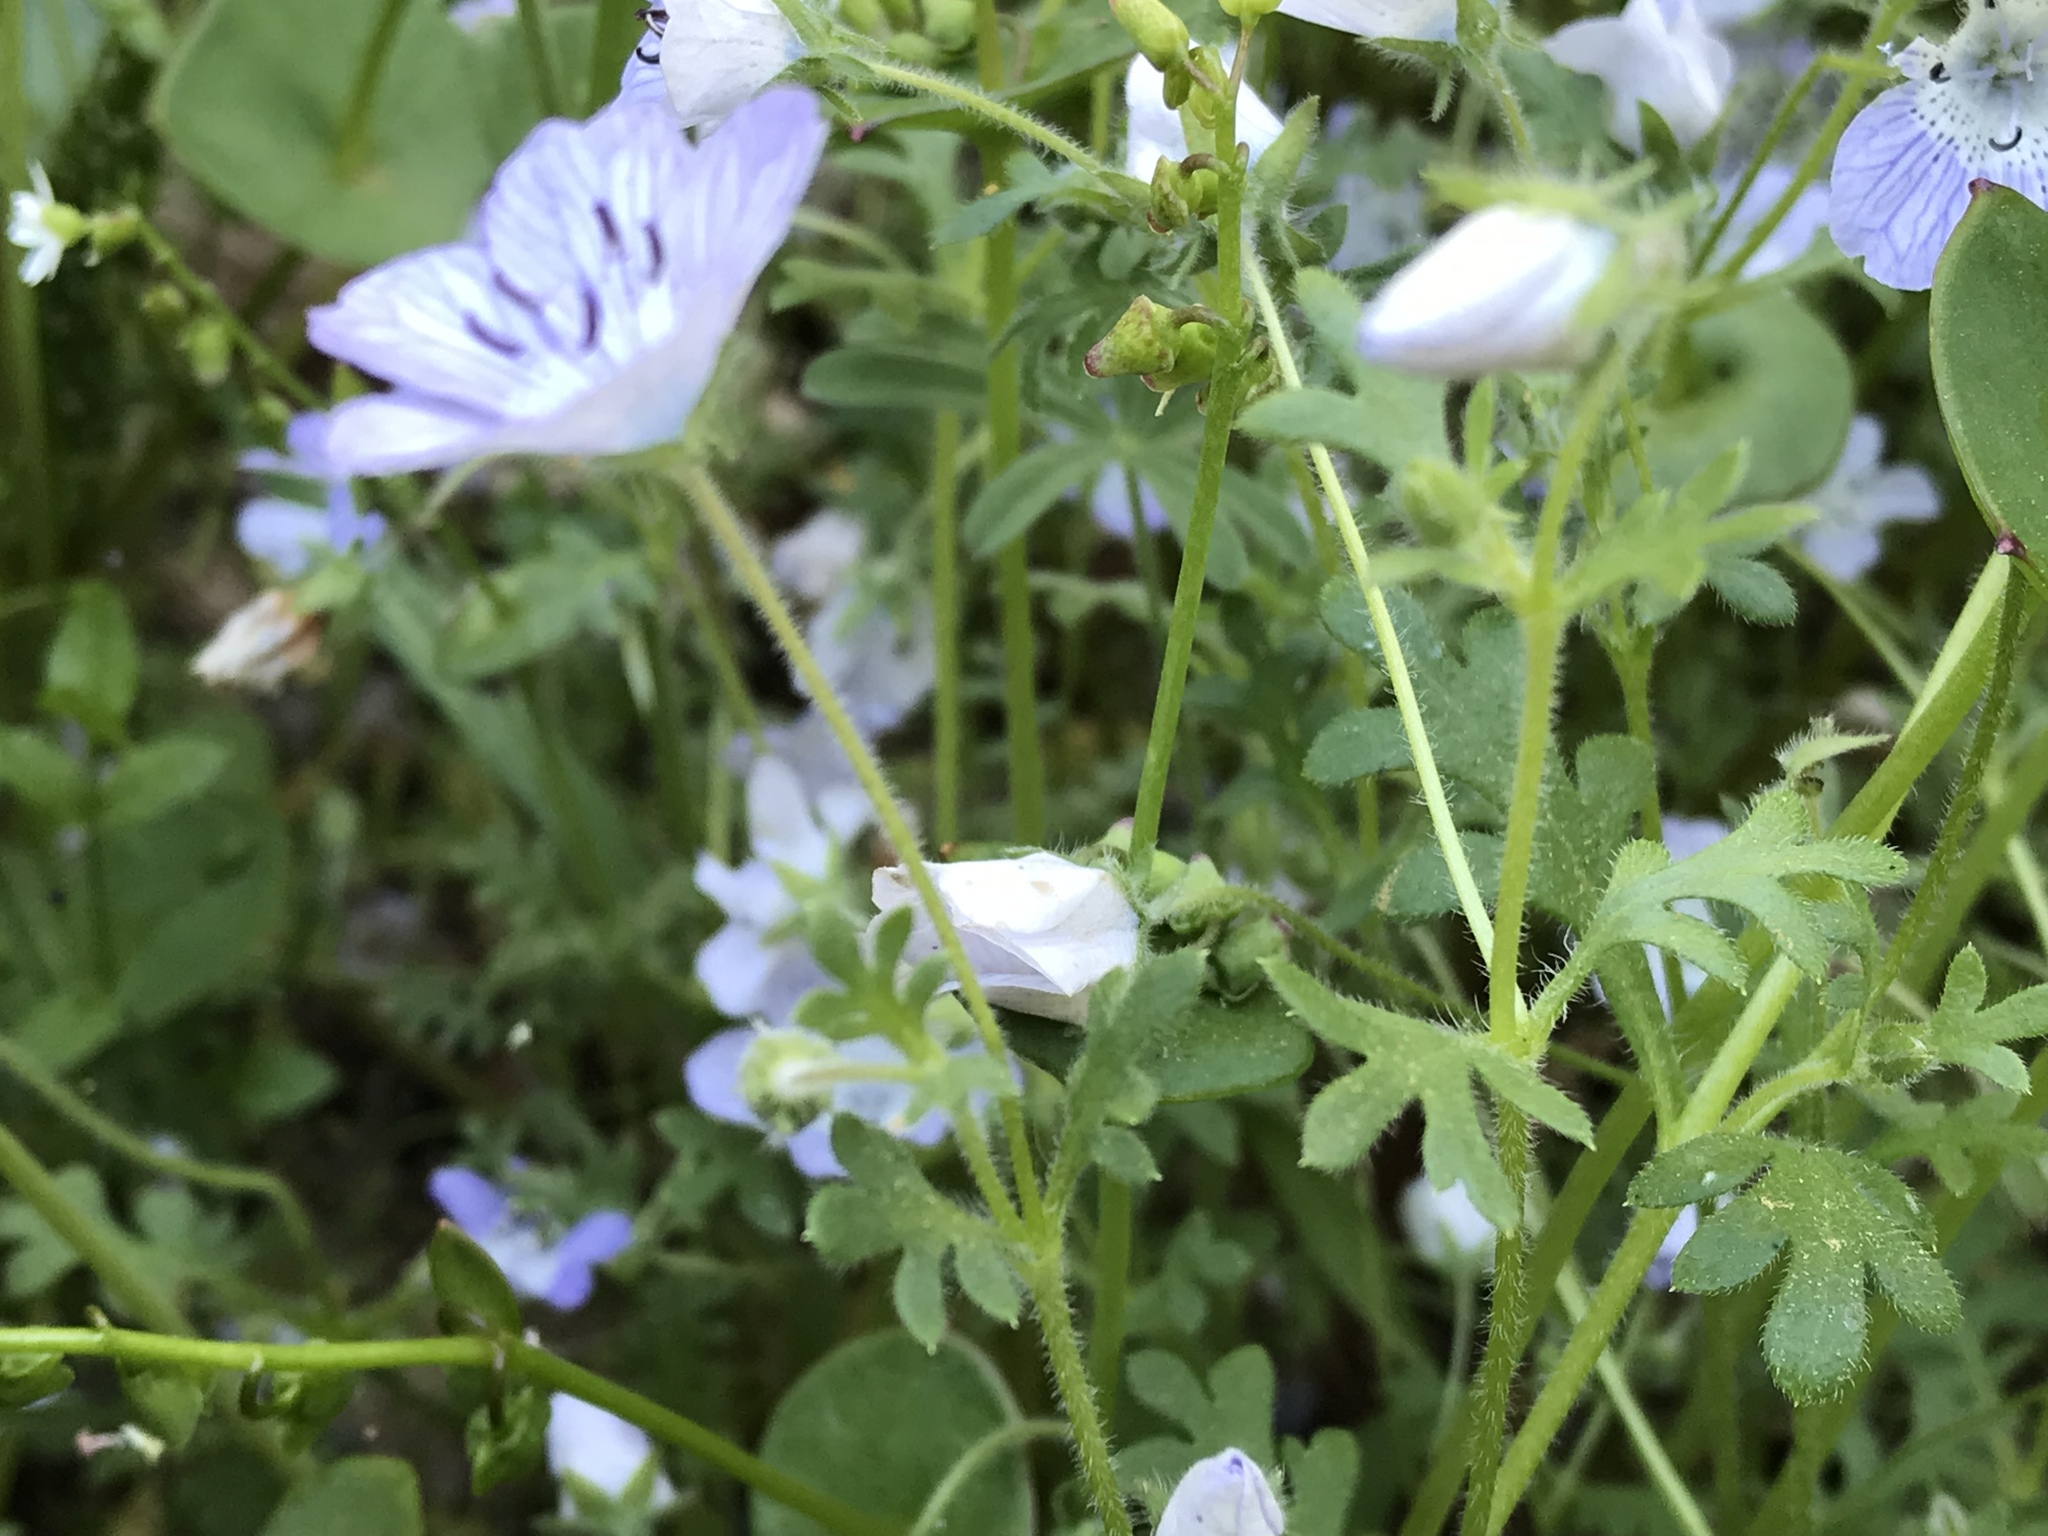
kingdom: Plantae
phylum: Tracheophyta
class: Magnoliopsida
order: Boraginales
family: Hydrophyllaceae
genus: Nemophila
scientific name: Nemophila menziesii
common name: Baby's-blue-eyes
